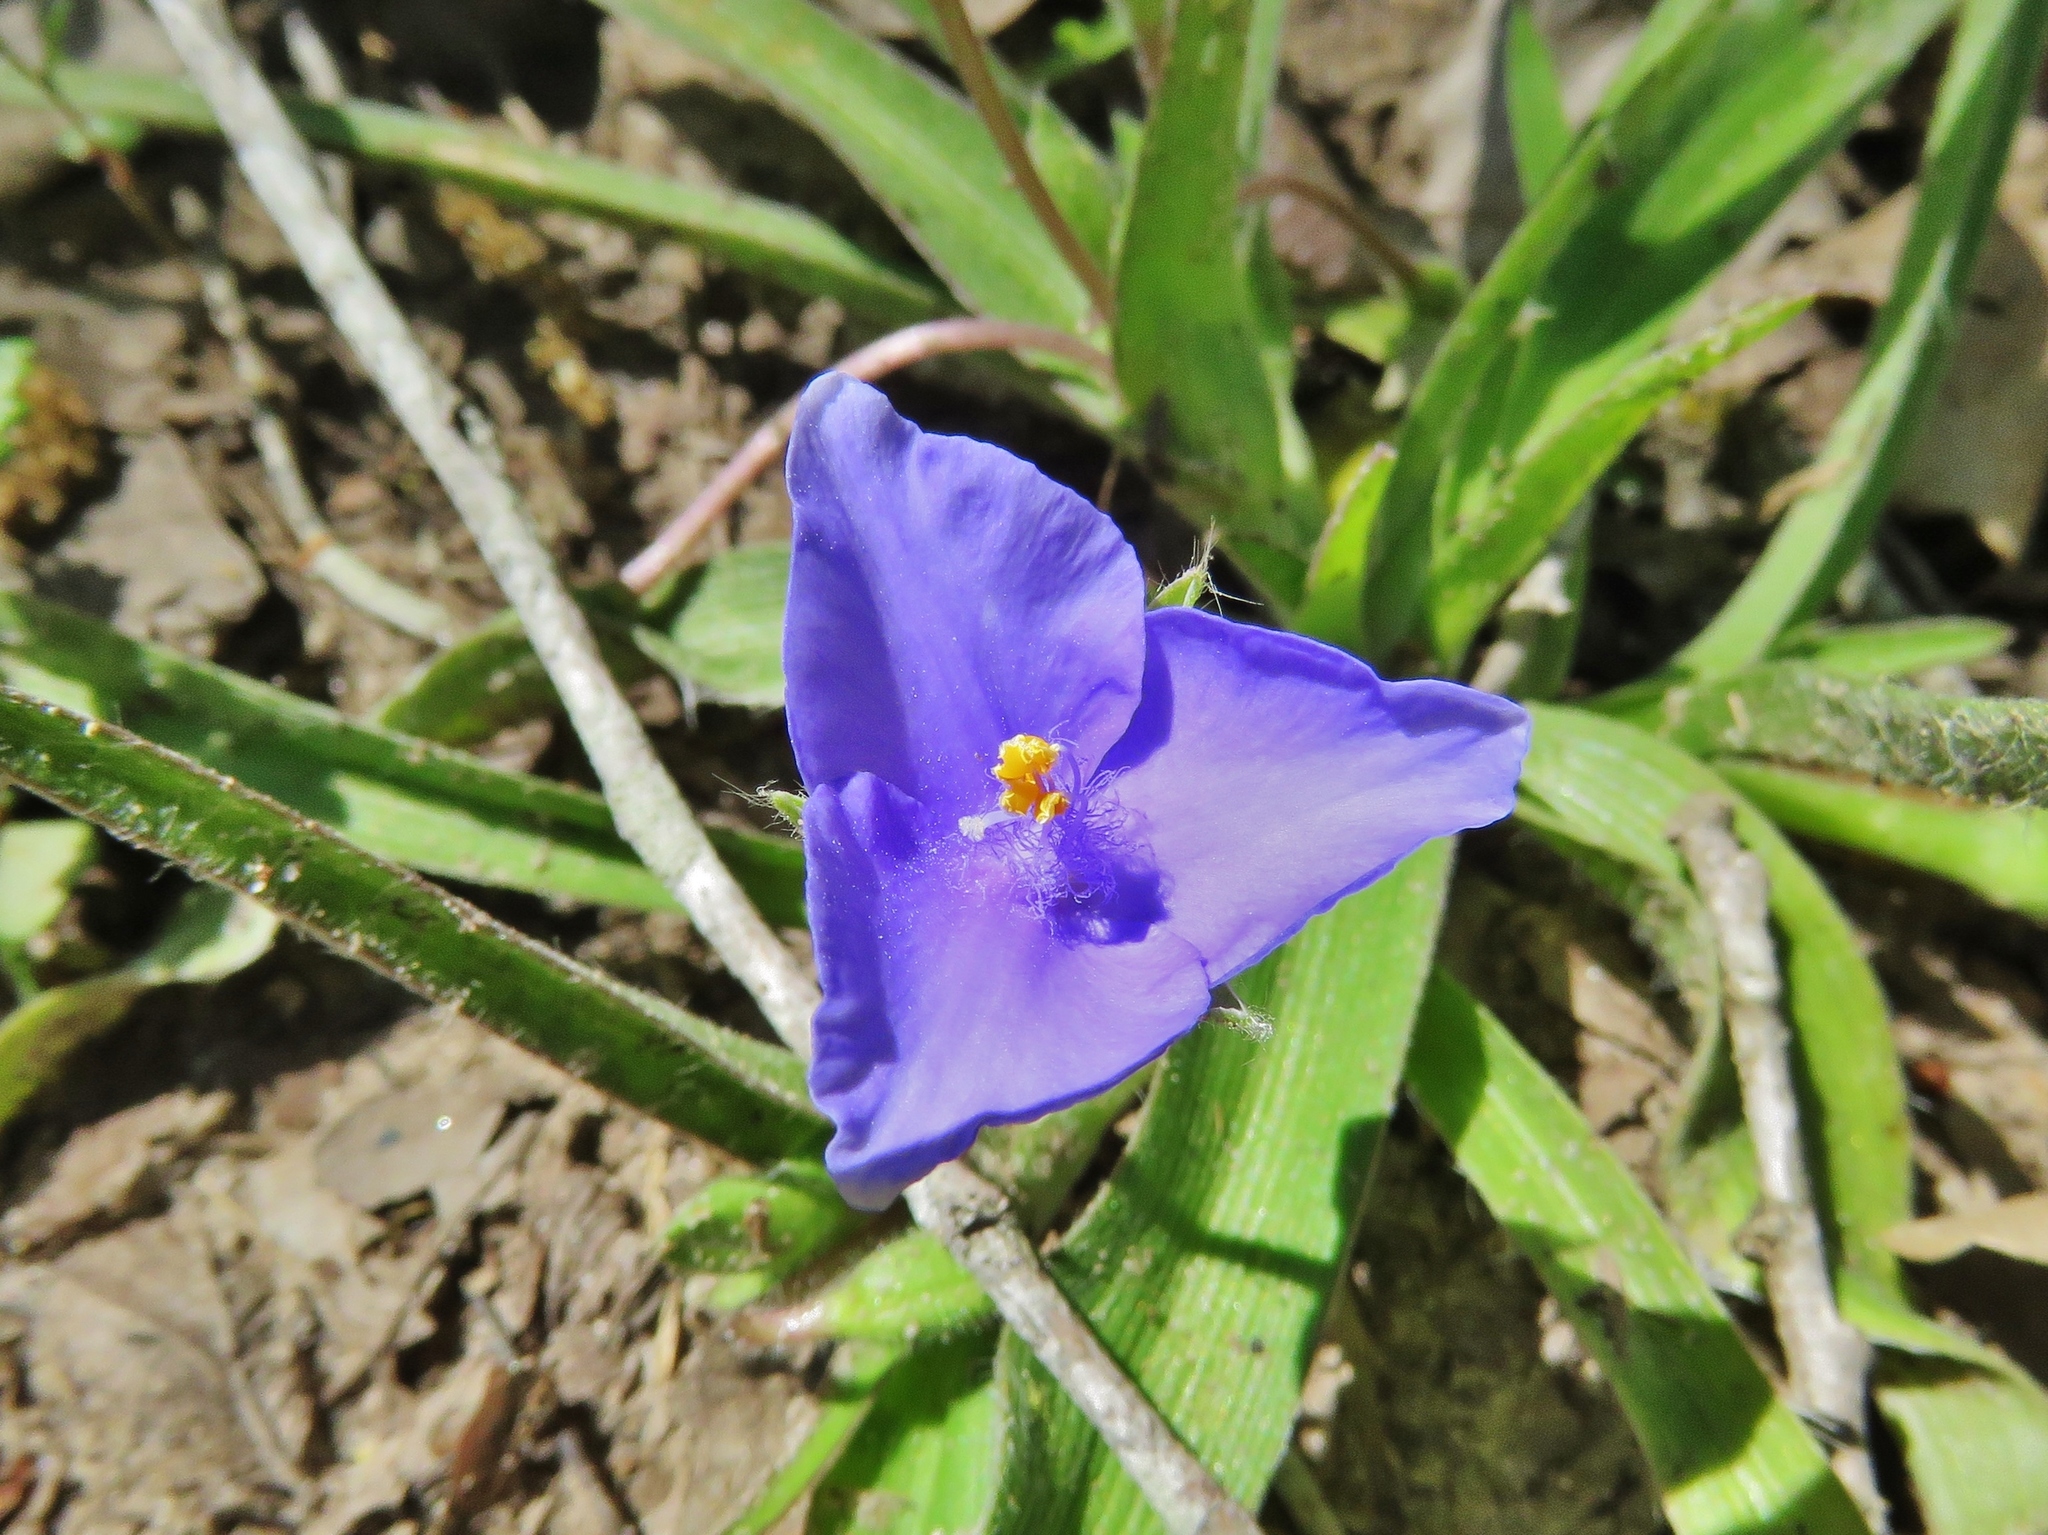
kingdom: Plantae
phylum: Tracheophyta
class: Liliopsida
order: Commelinales
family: Commelinaceae
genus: Tradescantia
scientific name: Tradescantia subacaulis
